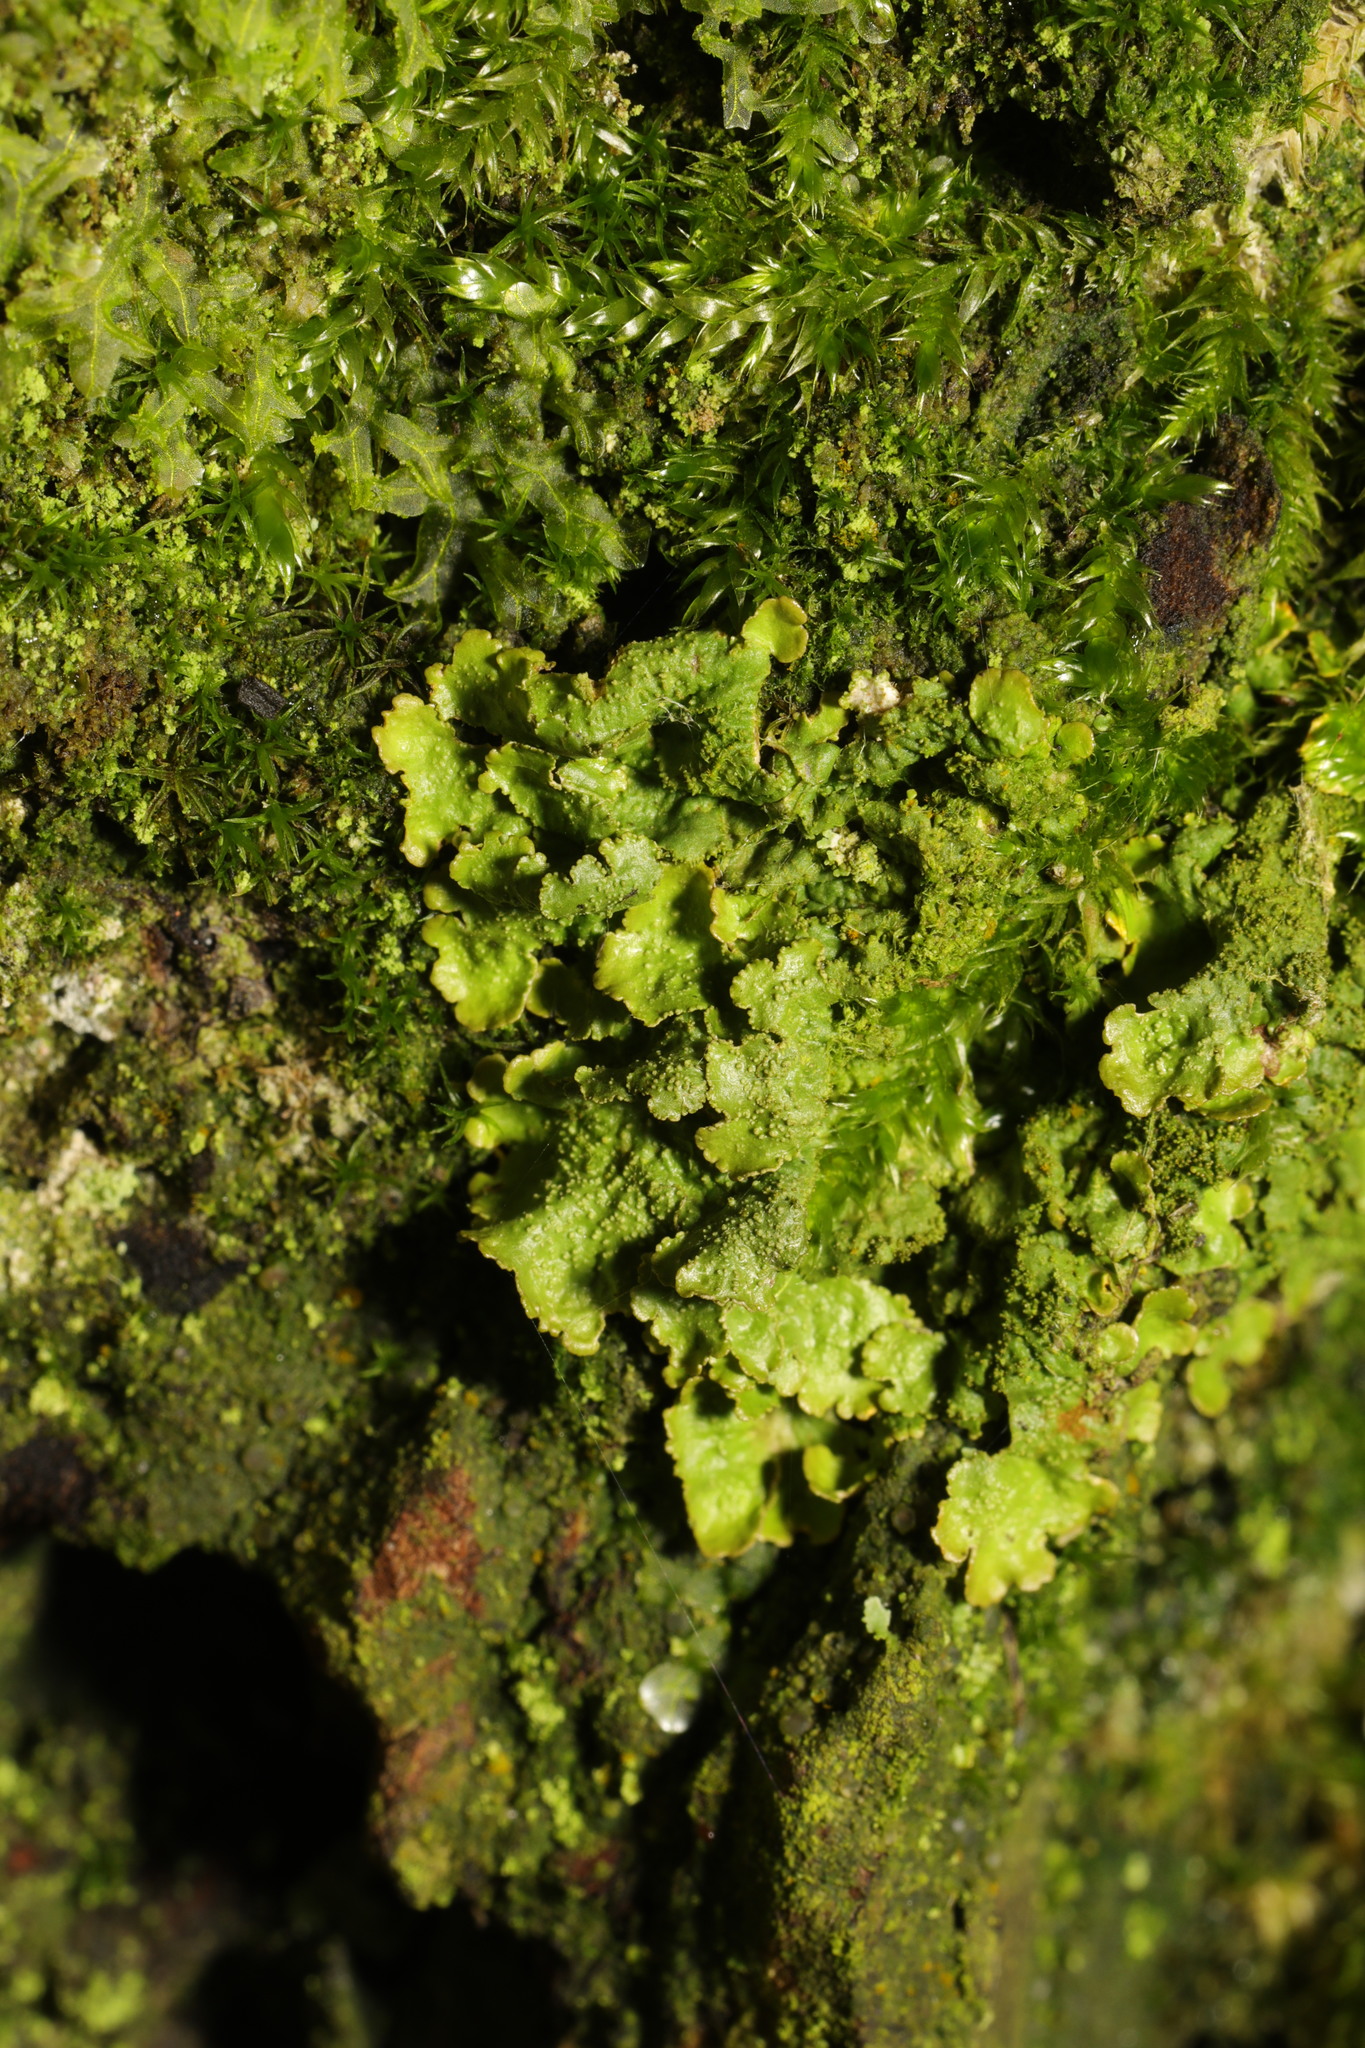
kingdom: Fungi
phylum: Ascomycota
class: Lecanoromycetes
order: Teloschistales
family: Teloschistaceae
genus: Xanthoria
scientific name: Xanthoria parietina
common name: Common orange lichen
